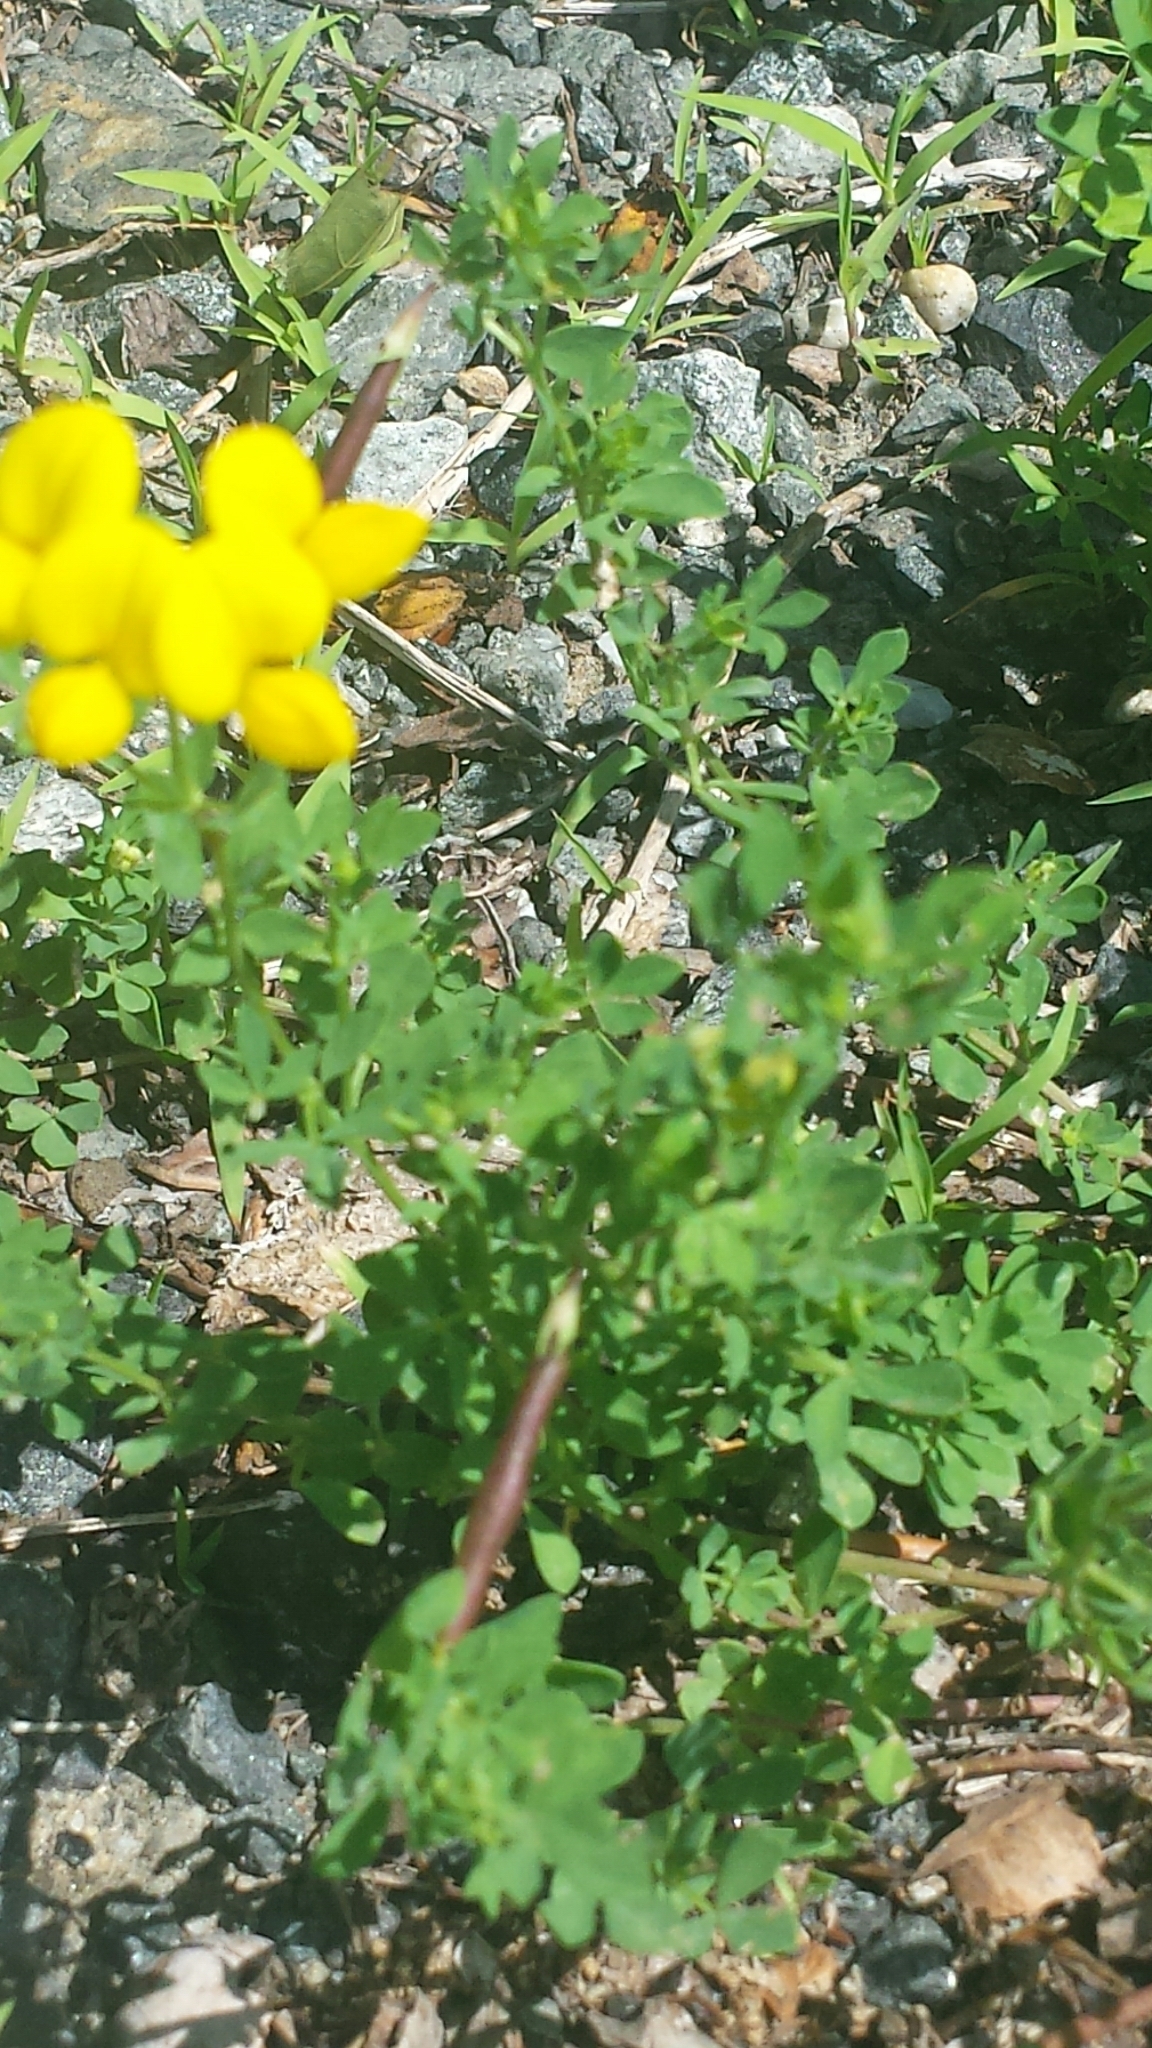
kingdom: Plantae
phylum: Tracheophyta
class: Magnoliopsida
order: Fabales
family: Fabaceae
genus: Lotus
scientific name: Lotus corniculatus
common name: Common bird's-foot-trefoil
